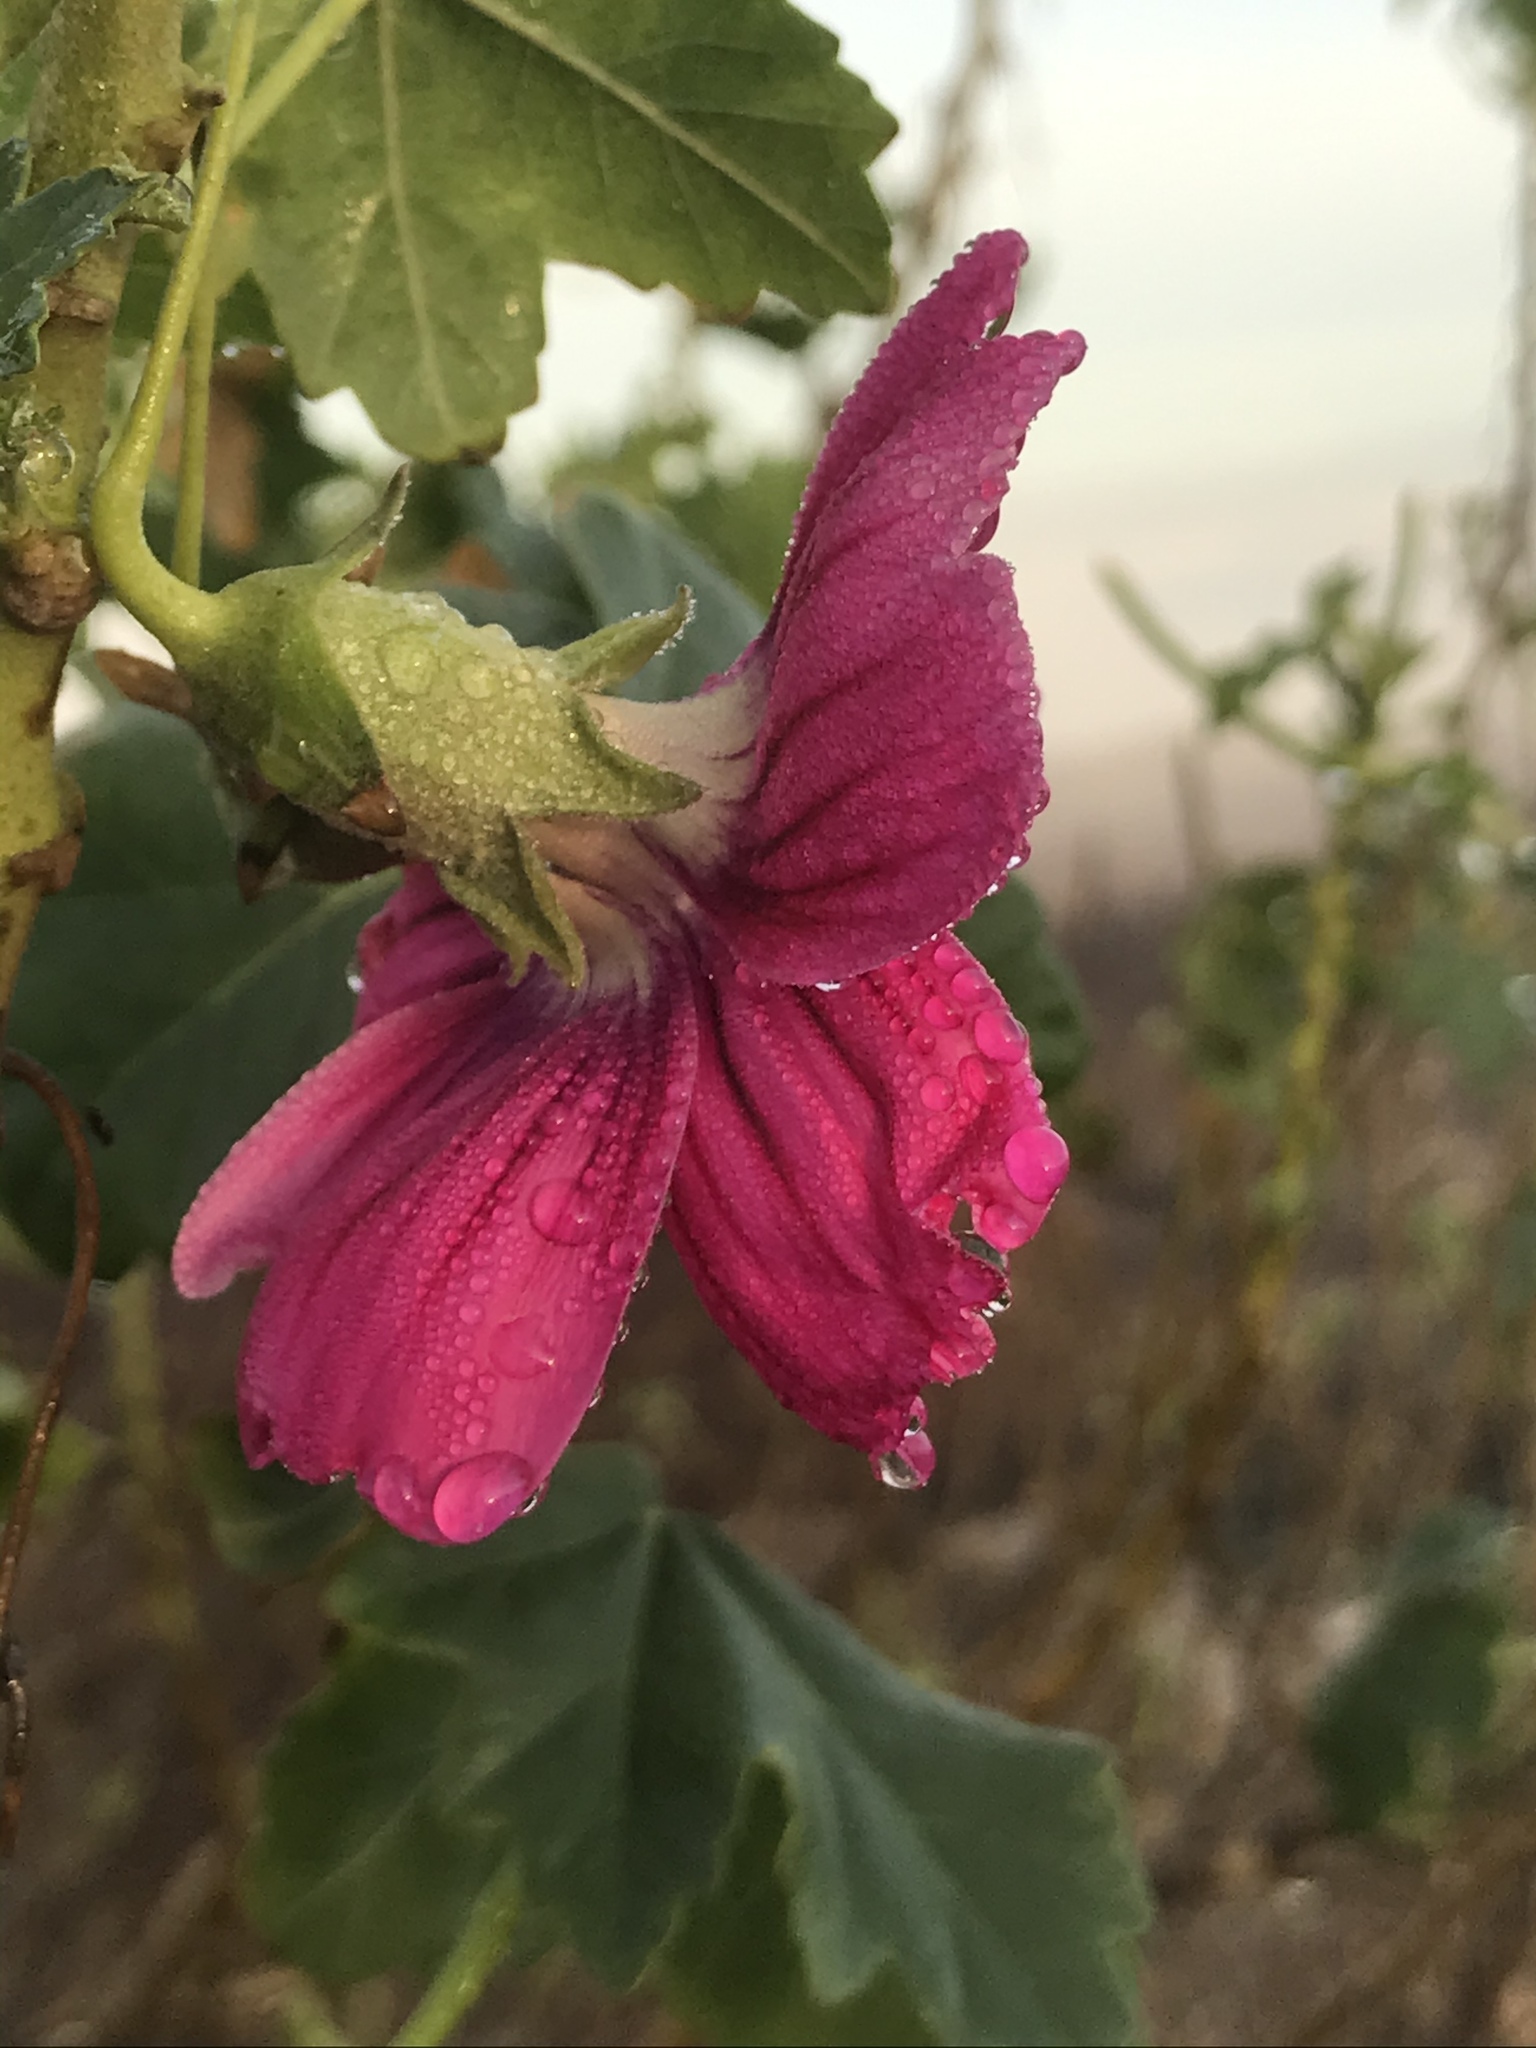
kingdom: Plantae
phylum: Tracheophyta
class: Magnoliopsida
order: Malvales
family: Malvaceae
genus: Malva
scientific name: Malva assurgentiflora
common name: Island mallow
